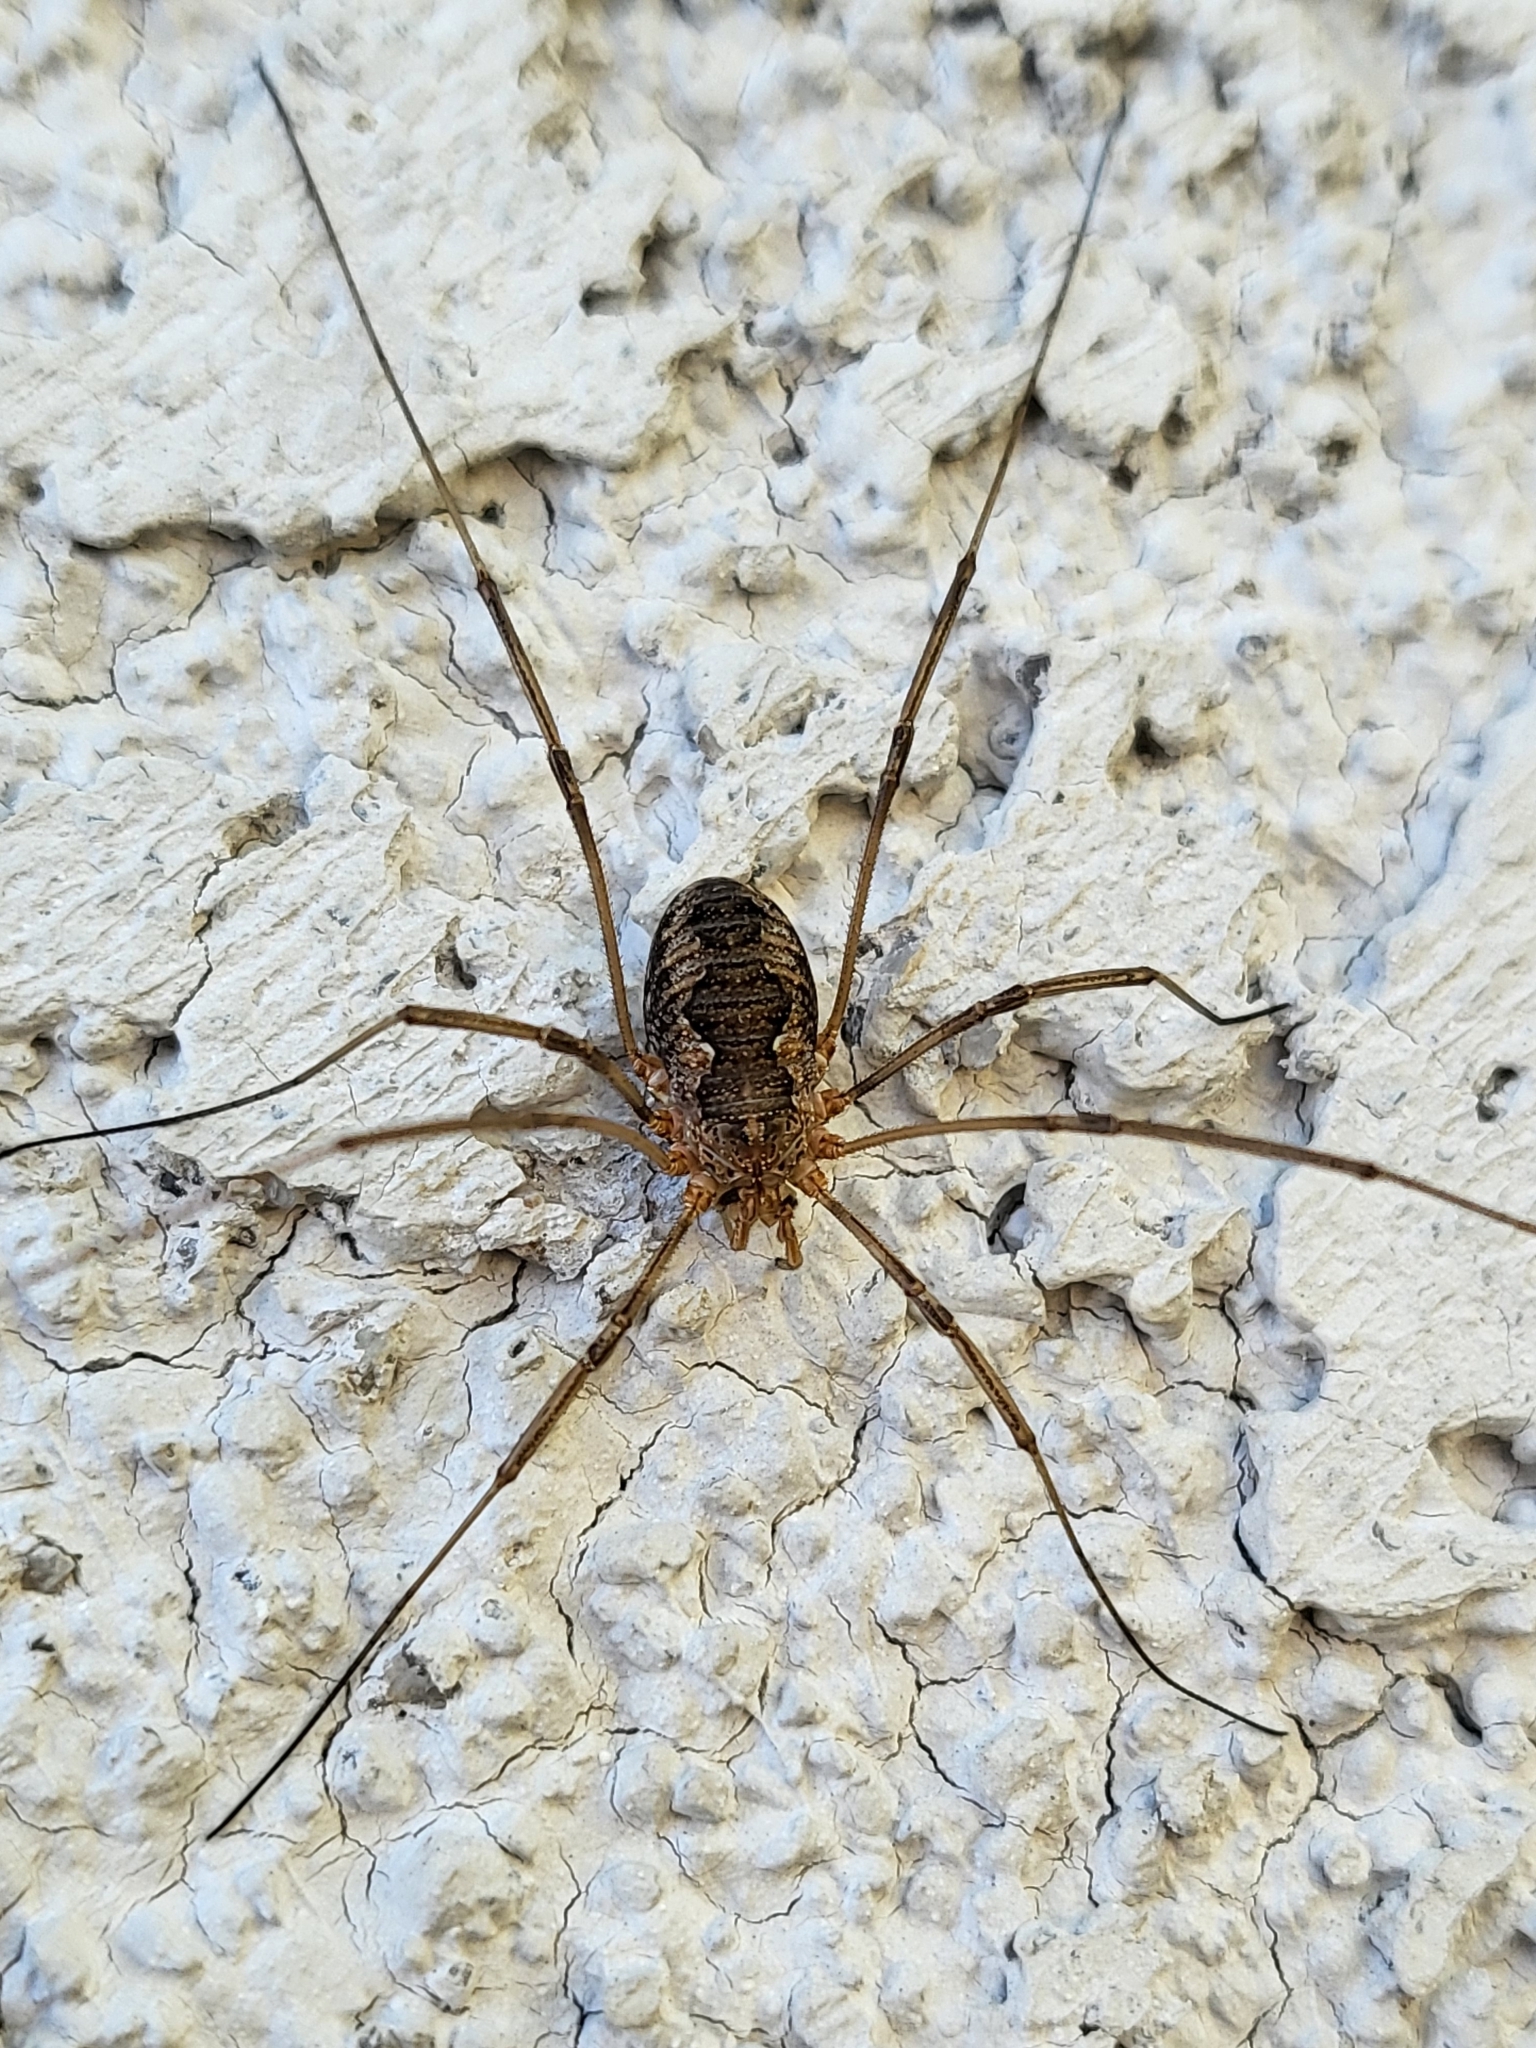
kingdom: Animalia
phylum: Arthropoda
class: Arachnida
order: Opiliones
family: Phalangiidae
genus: Phalangium
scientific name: Phalangium opilio
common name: Daddy longleg
